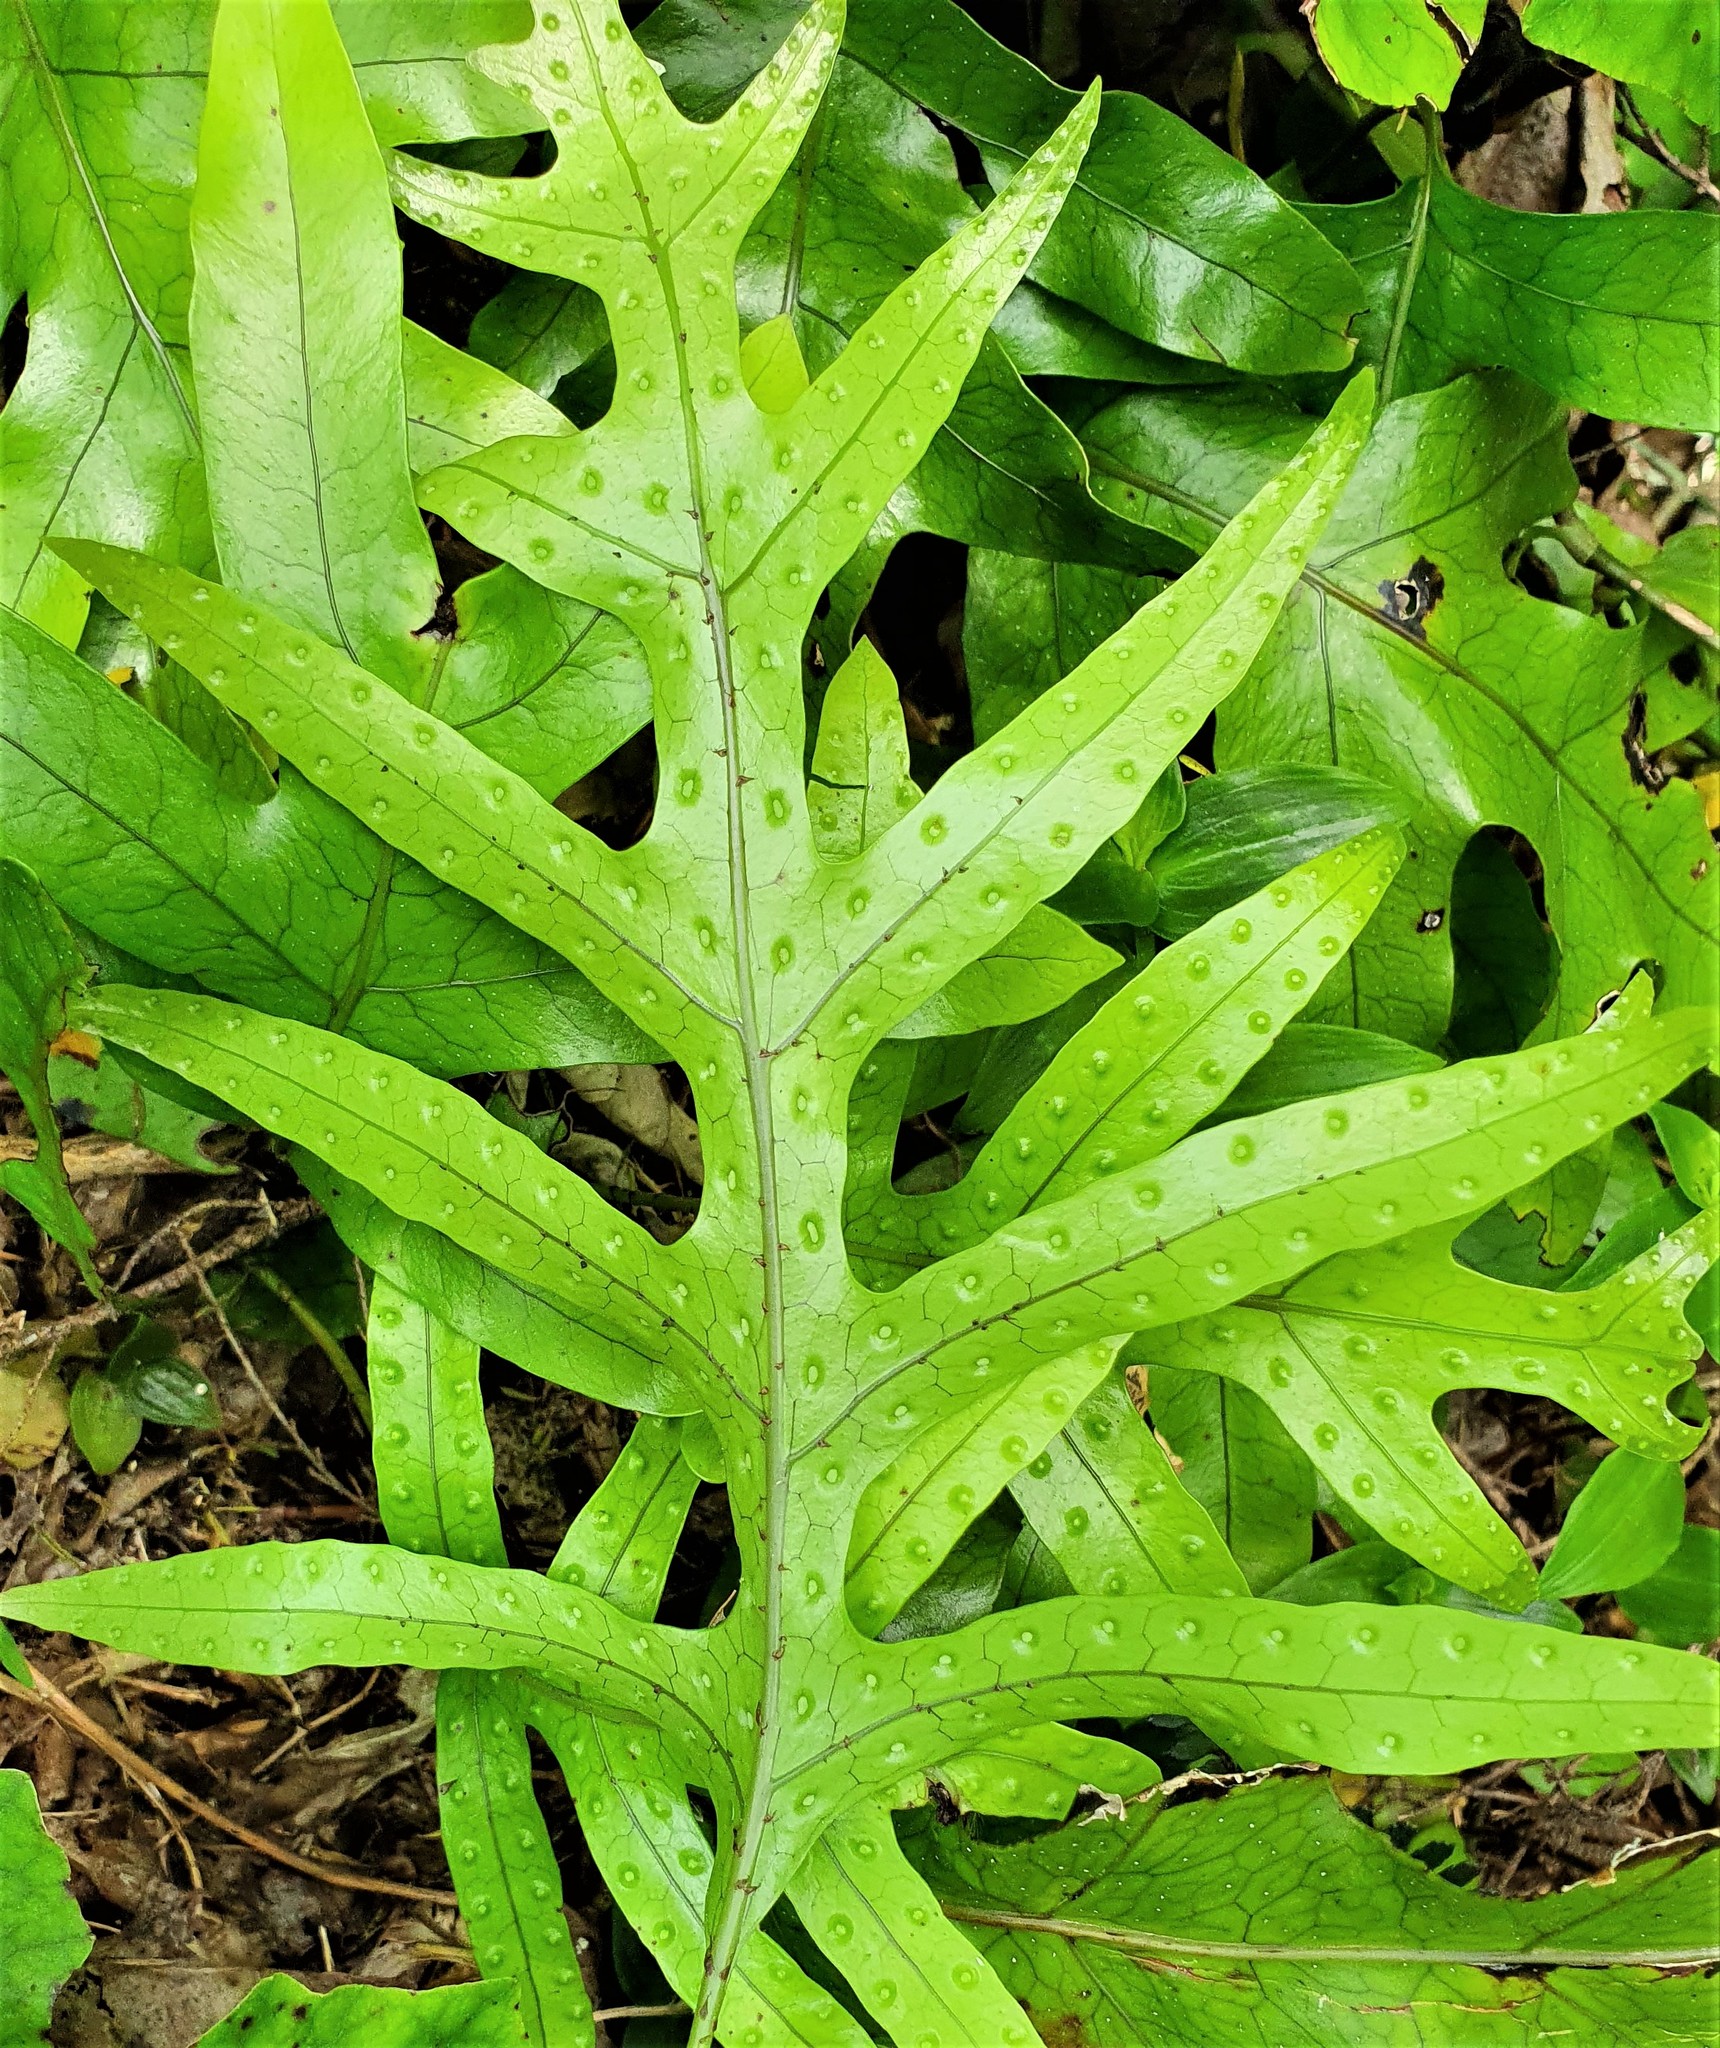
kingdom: Plantae
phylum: Tracheophyta
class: Polypodiopsida
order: Polypodiales
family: Polypodiaceae
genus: Lecanopteris
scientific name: Lecanopteris pustulata
